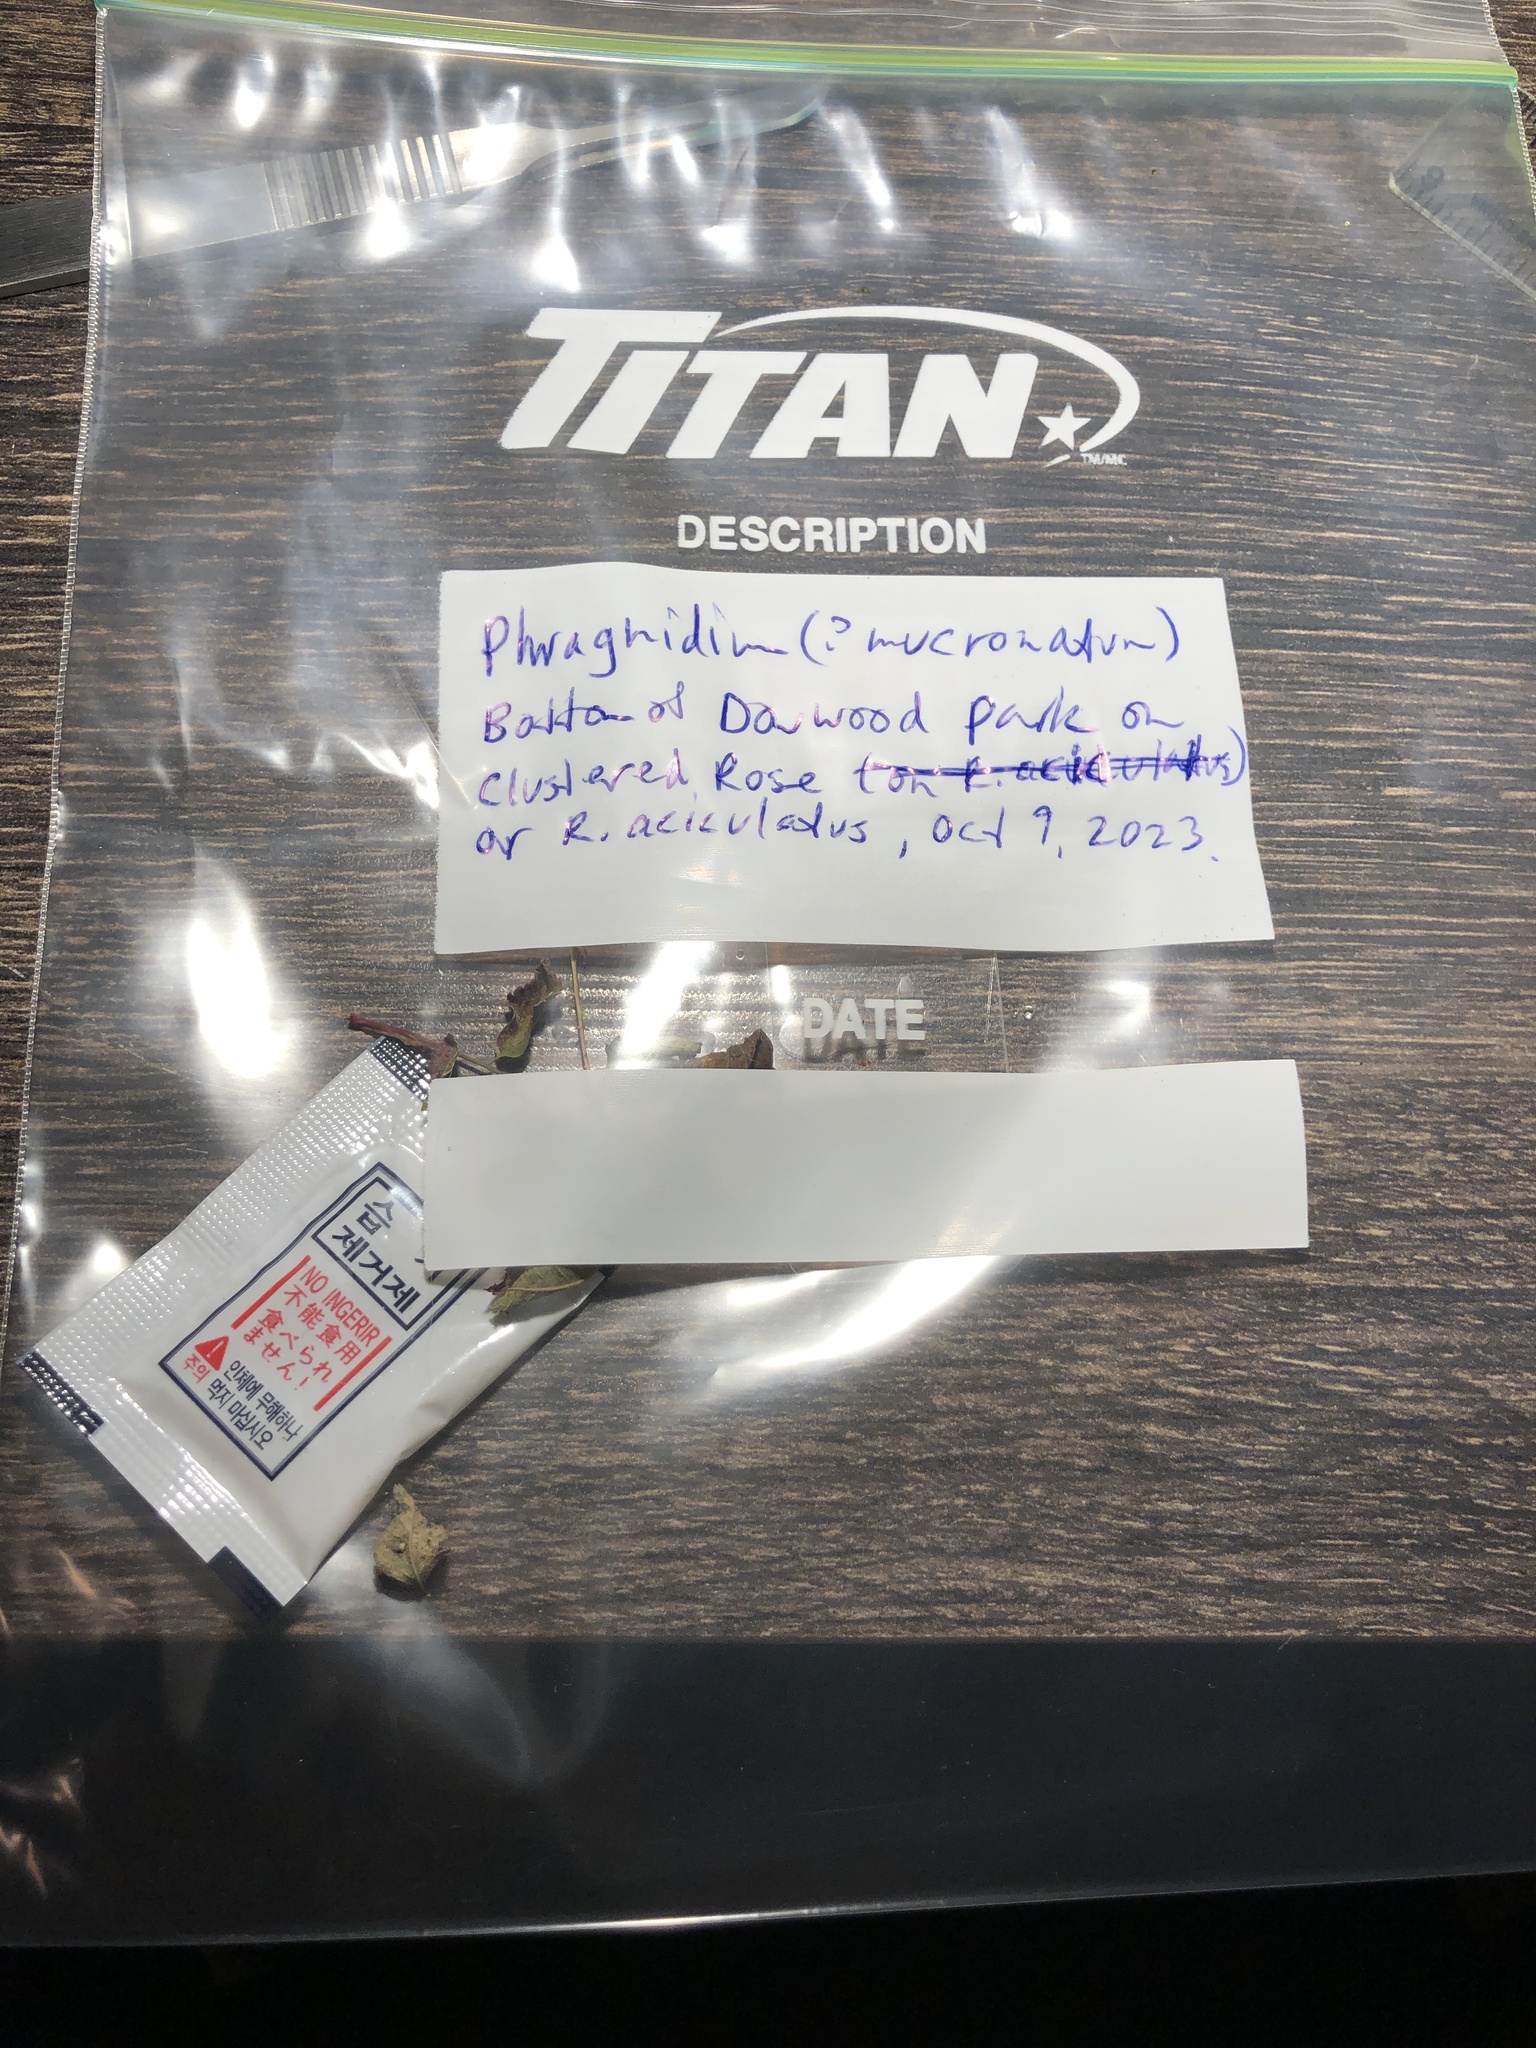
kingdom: Animalia
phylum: Arthropoda
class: Insecta
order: Hymenoptera
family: Cynipidae
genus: Diplolepis
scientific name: Diplolepis gracilis
